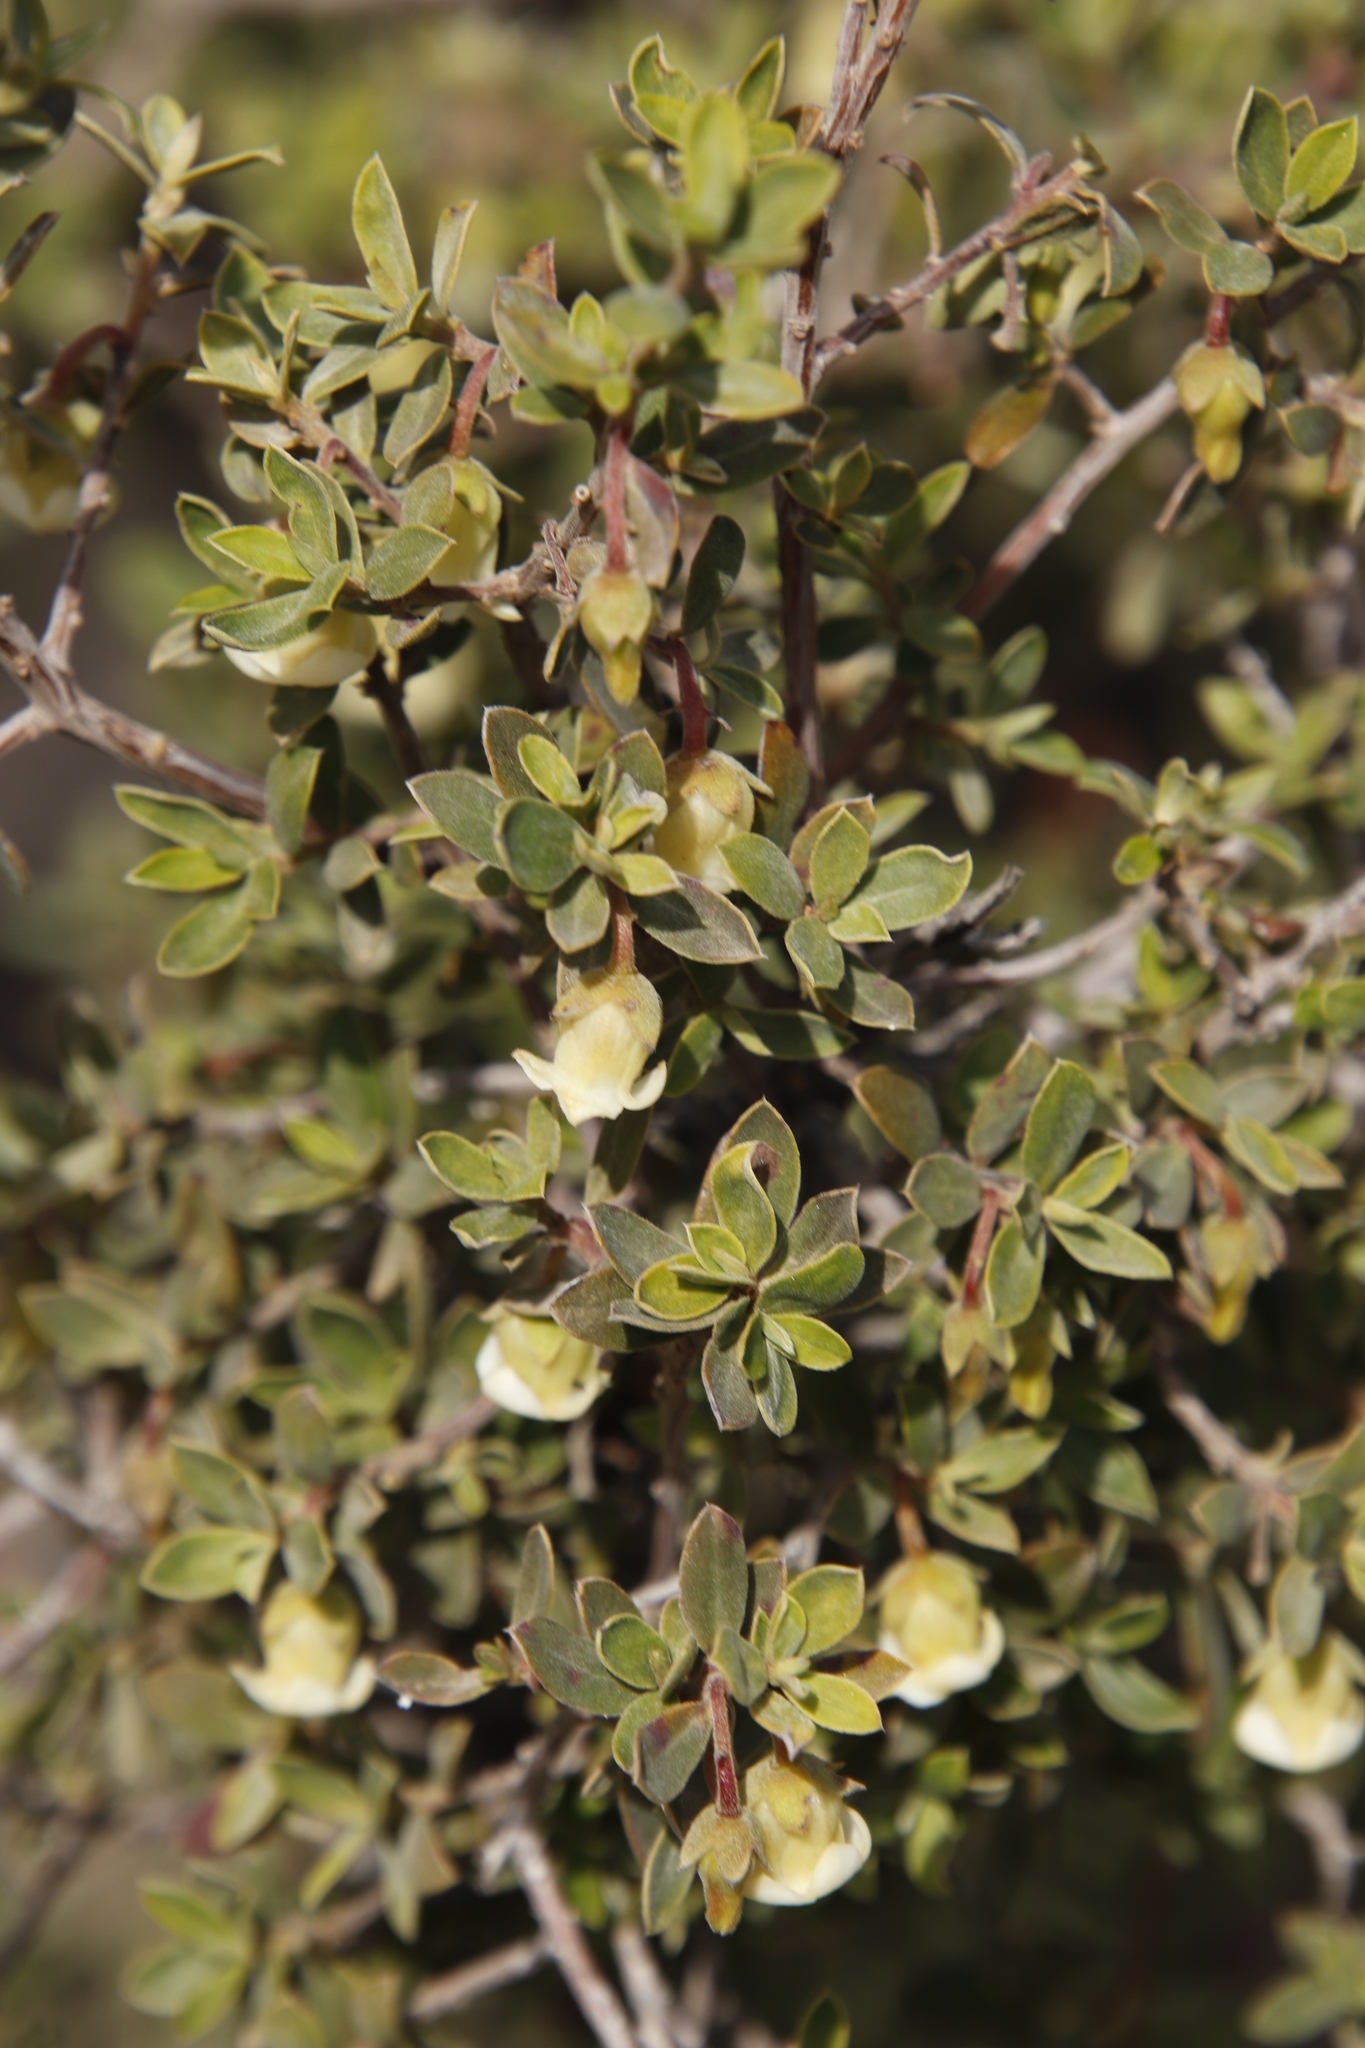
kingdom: Plantae
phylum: Tracheophyta
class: Magnoliopsida
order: Ericales
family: Ebenaceae
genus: Diospyros
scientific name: Diospyros pubescens
